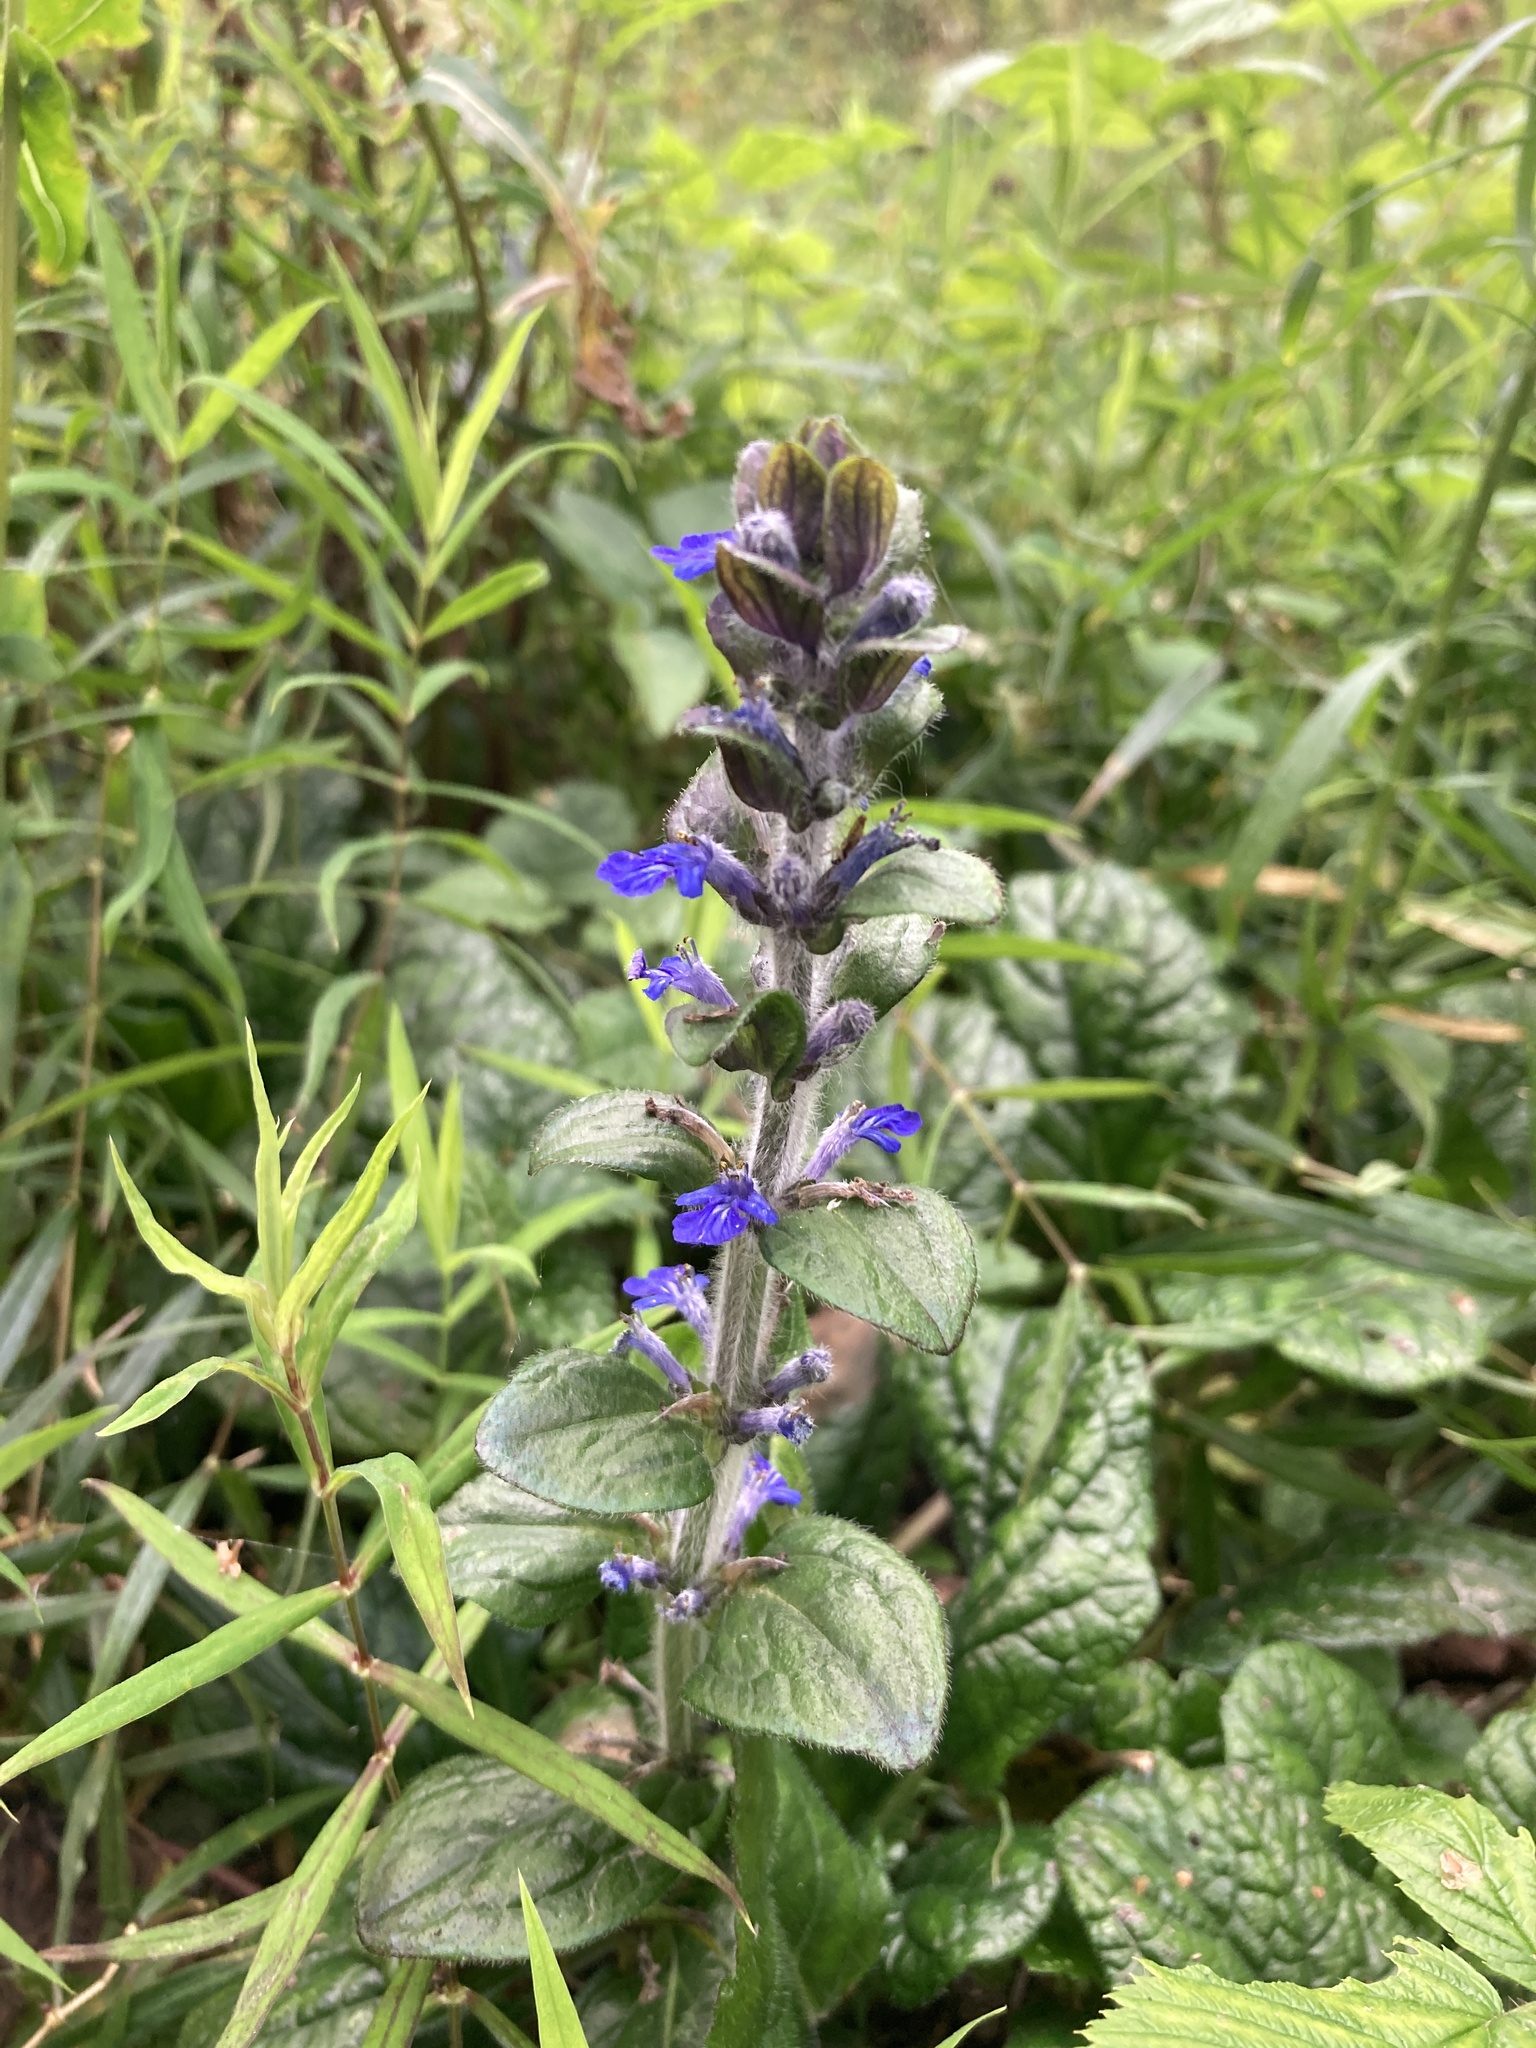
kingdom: Plantae
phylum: Tracheophyta
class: Magnoliopsida
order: Lamiales
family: Lamiaceae
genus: Ajuga
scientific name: Ajuga reptans
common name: Bugle
